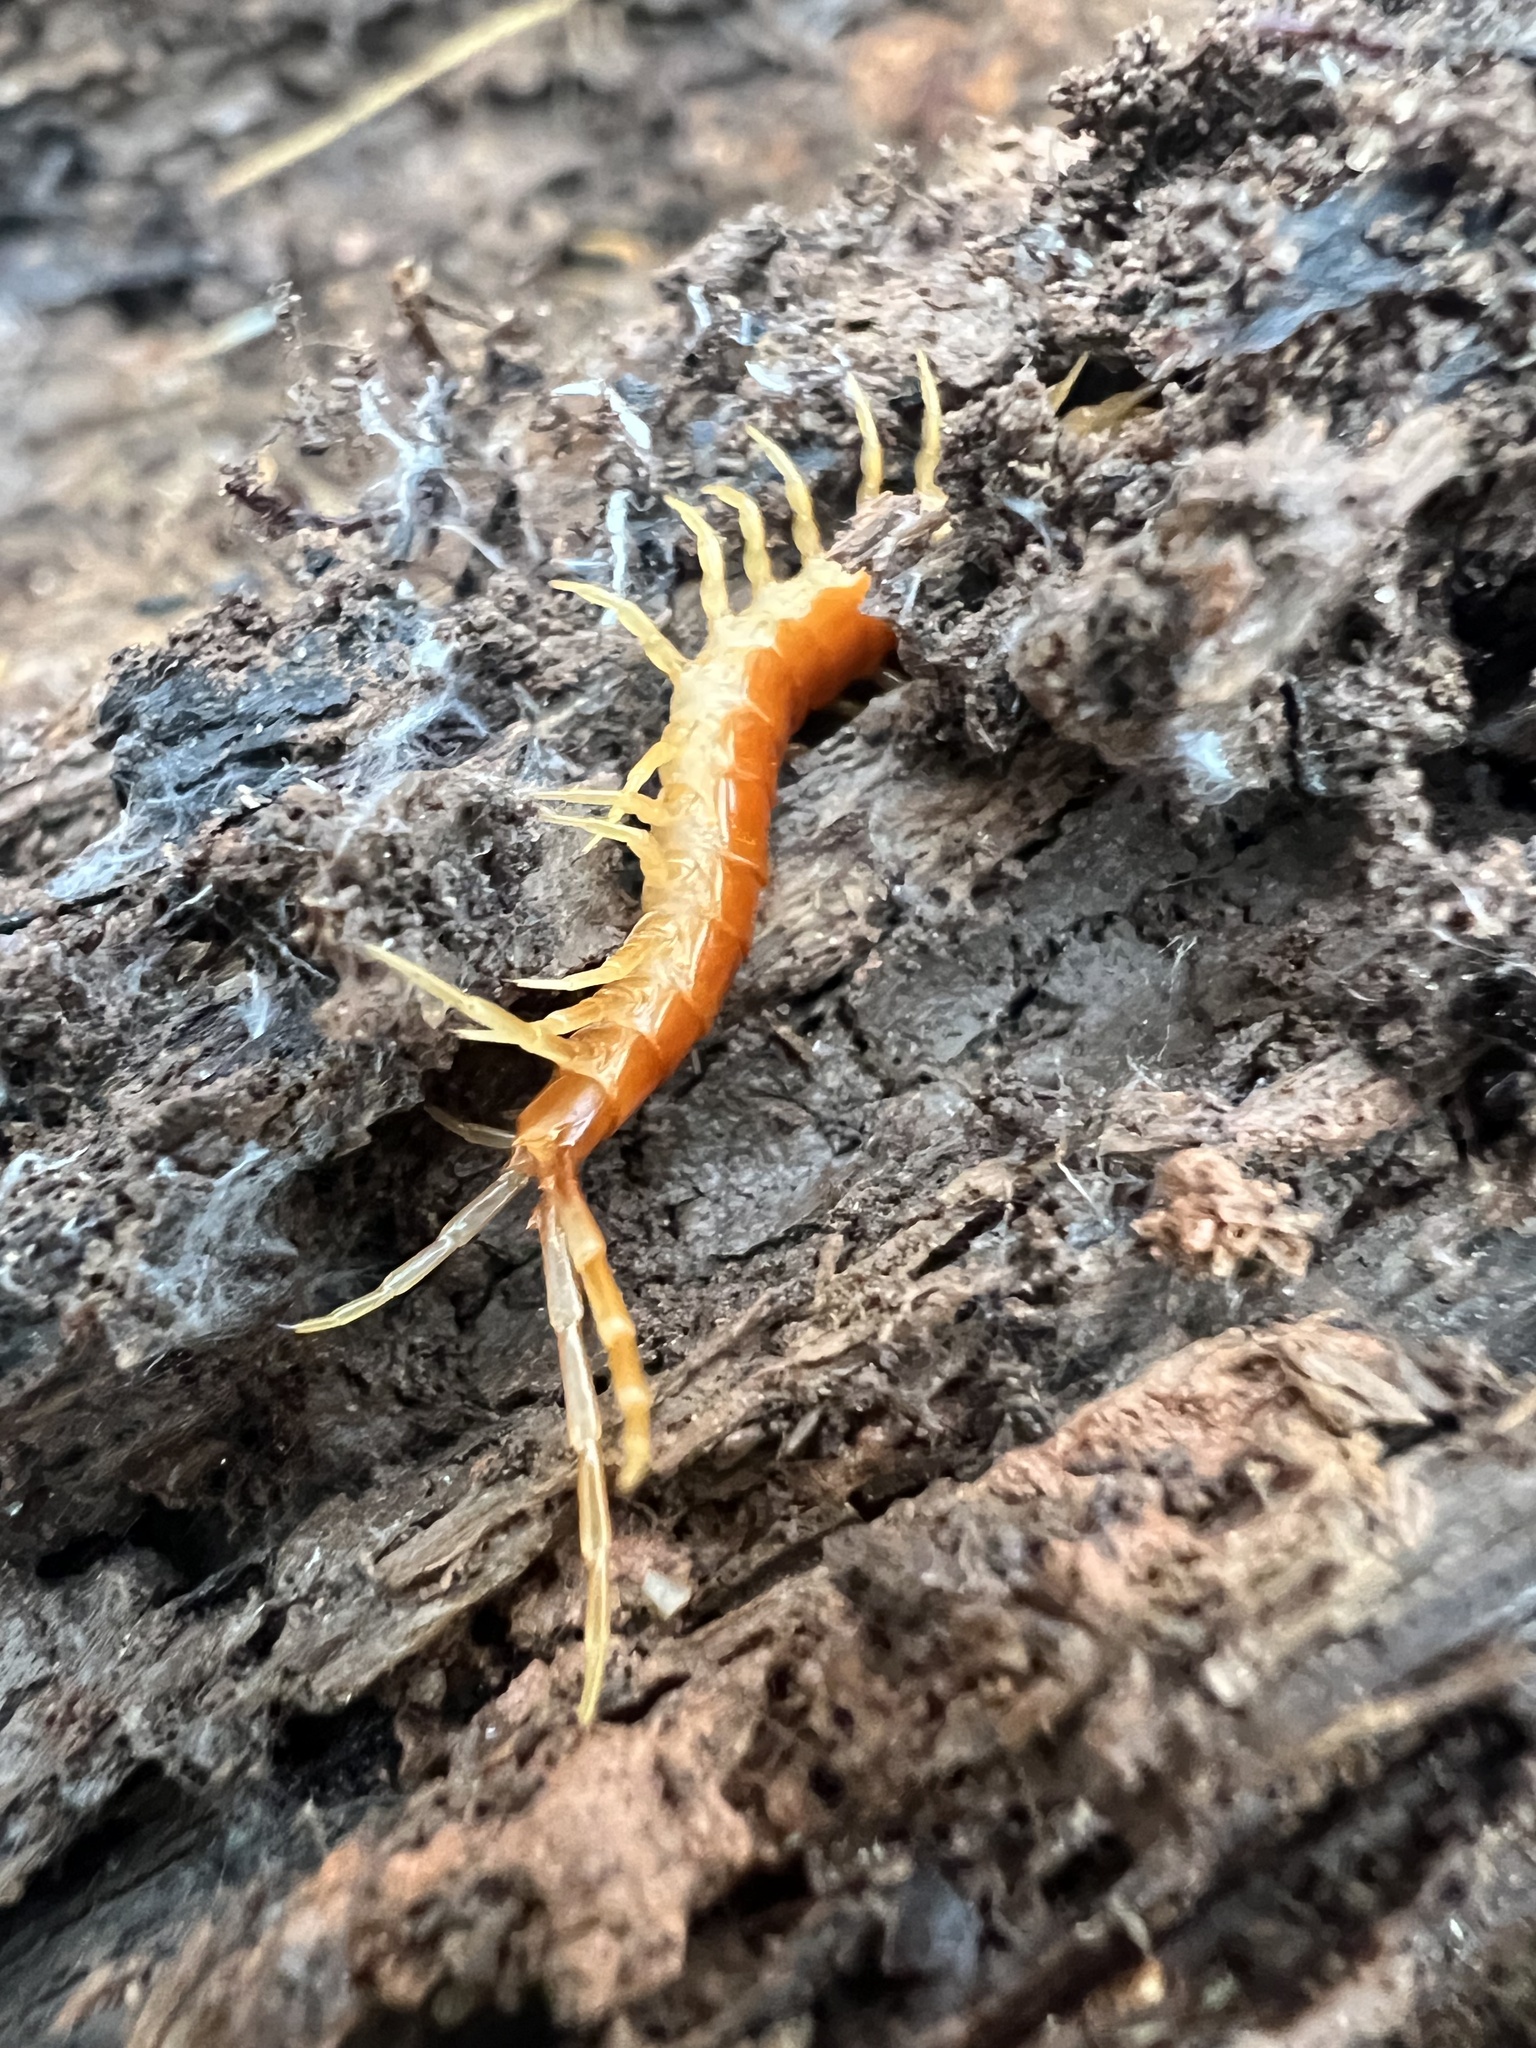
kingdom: Animalia
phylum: Arthropoda
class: Chilopoda
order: Scolopendromorpha
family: Scolopocryptopidae
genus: Scolopocryptops
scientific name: Scolopocryptops sexspinosus
